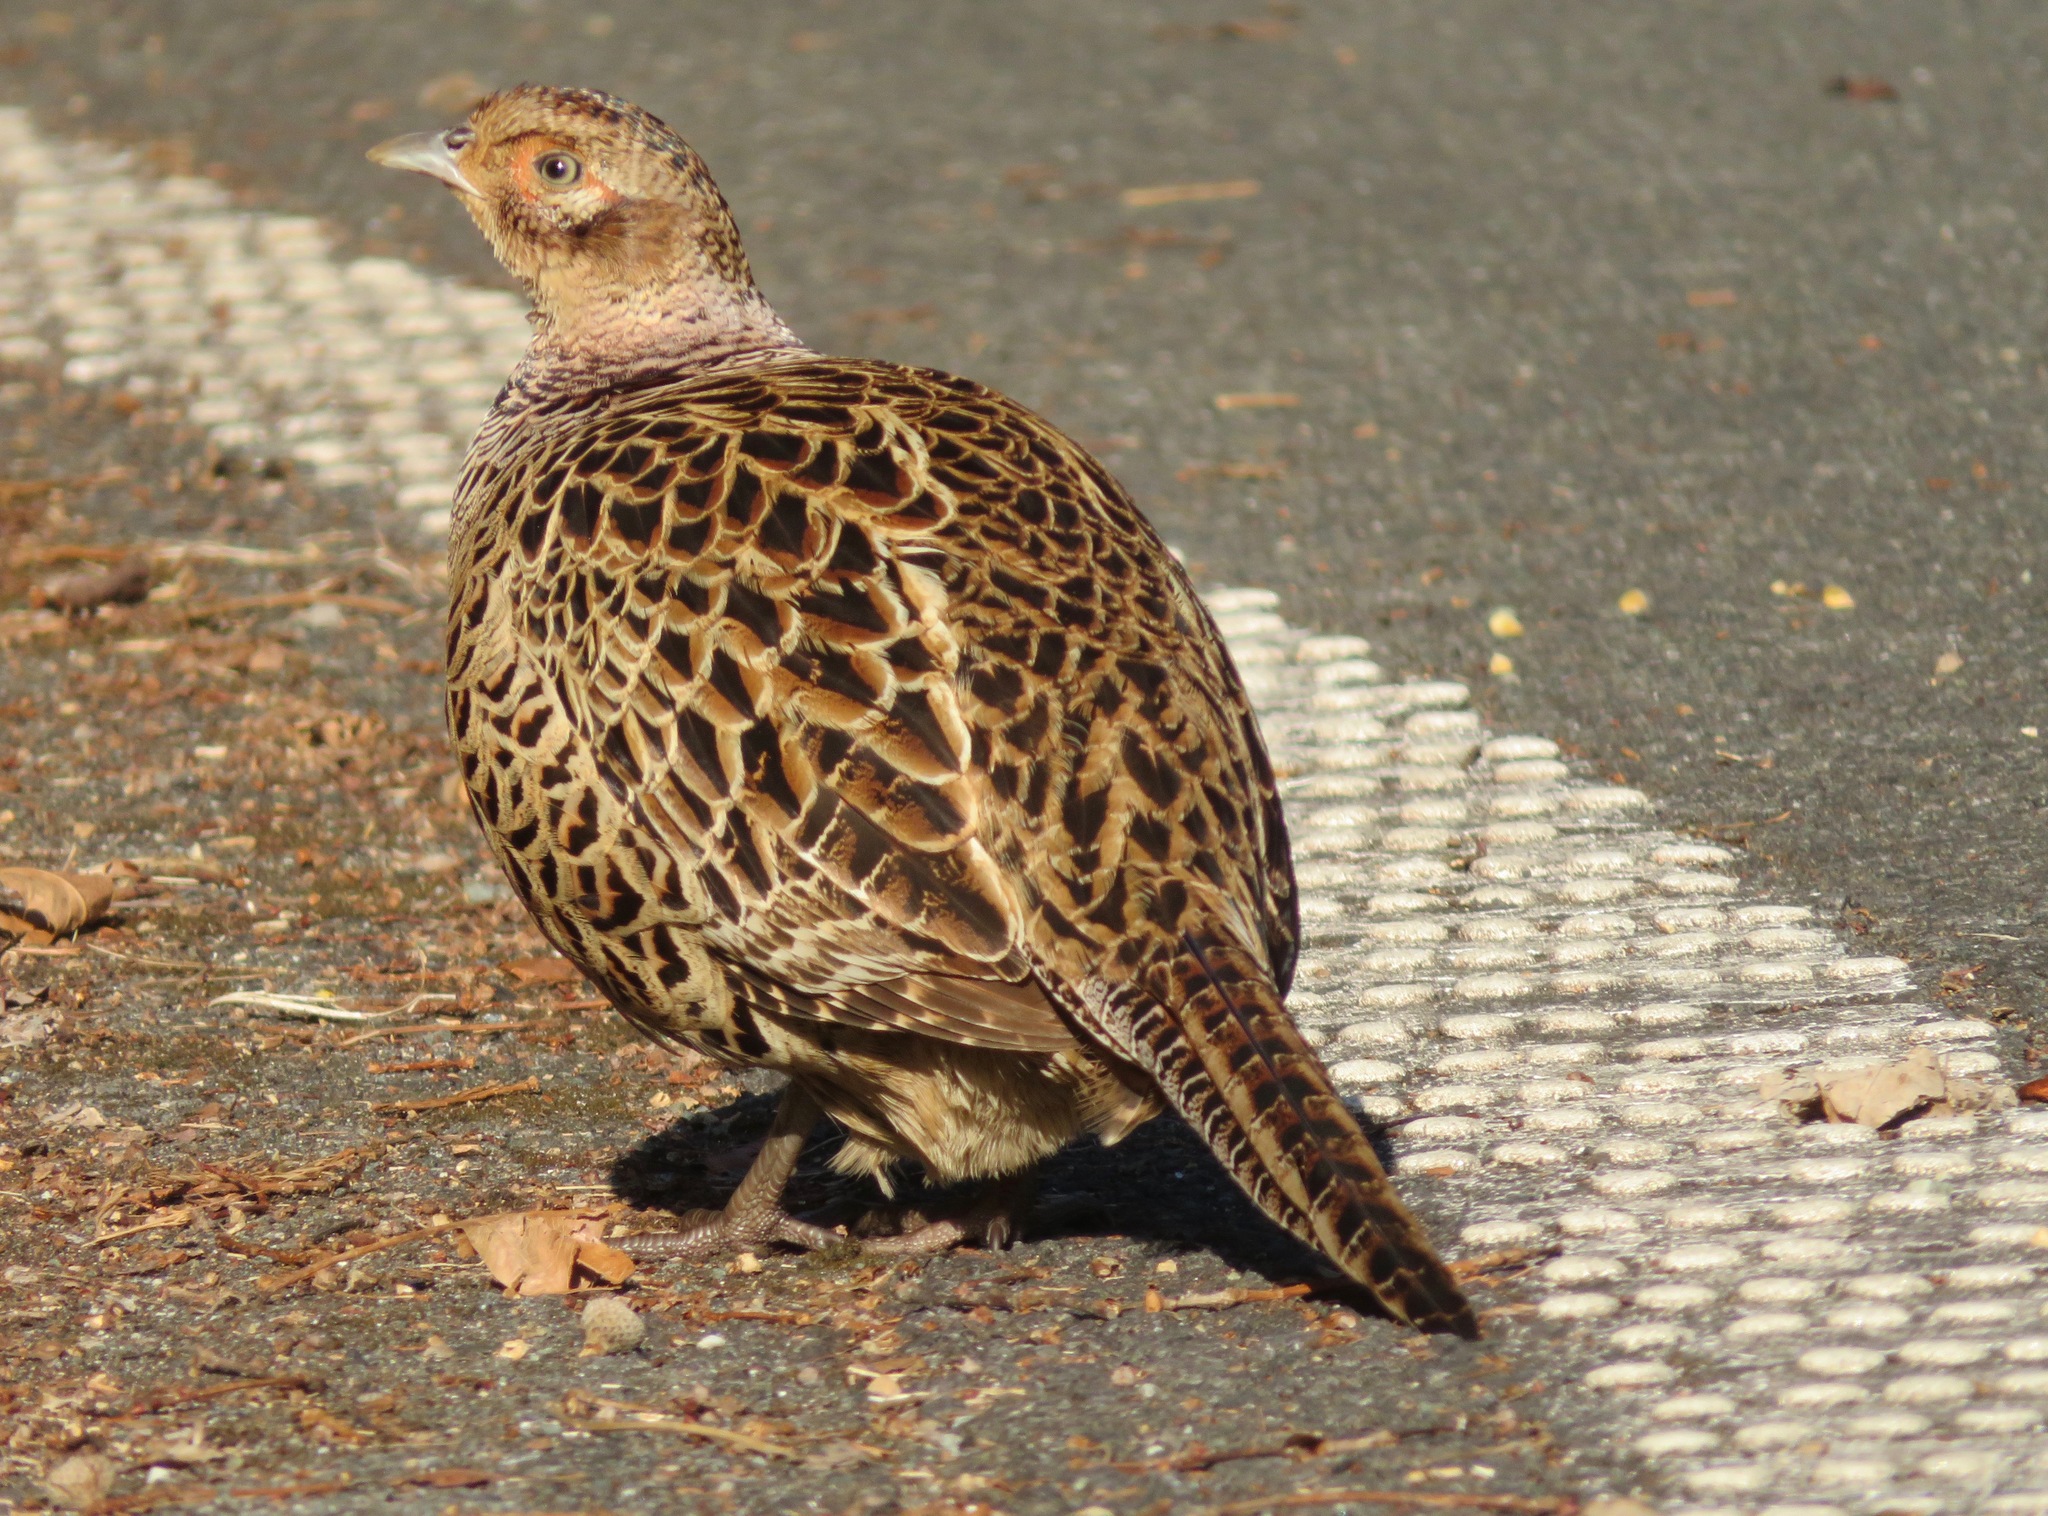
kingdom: Animalia
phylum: Chordata
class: Aves
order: Galliformes
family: Phasianidae
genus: Phasianus
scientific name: Phasianus versicolor
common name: Green pheasant
